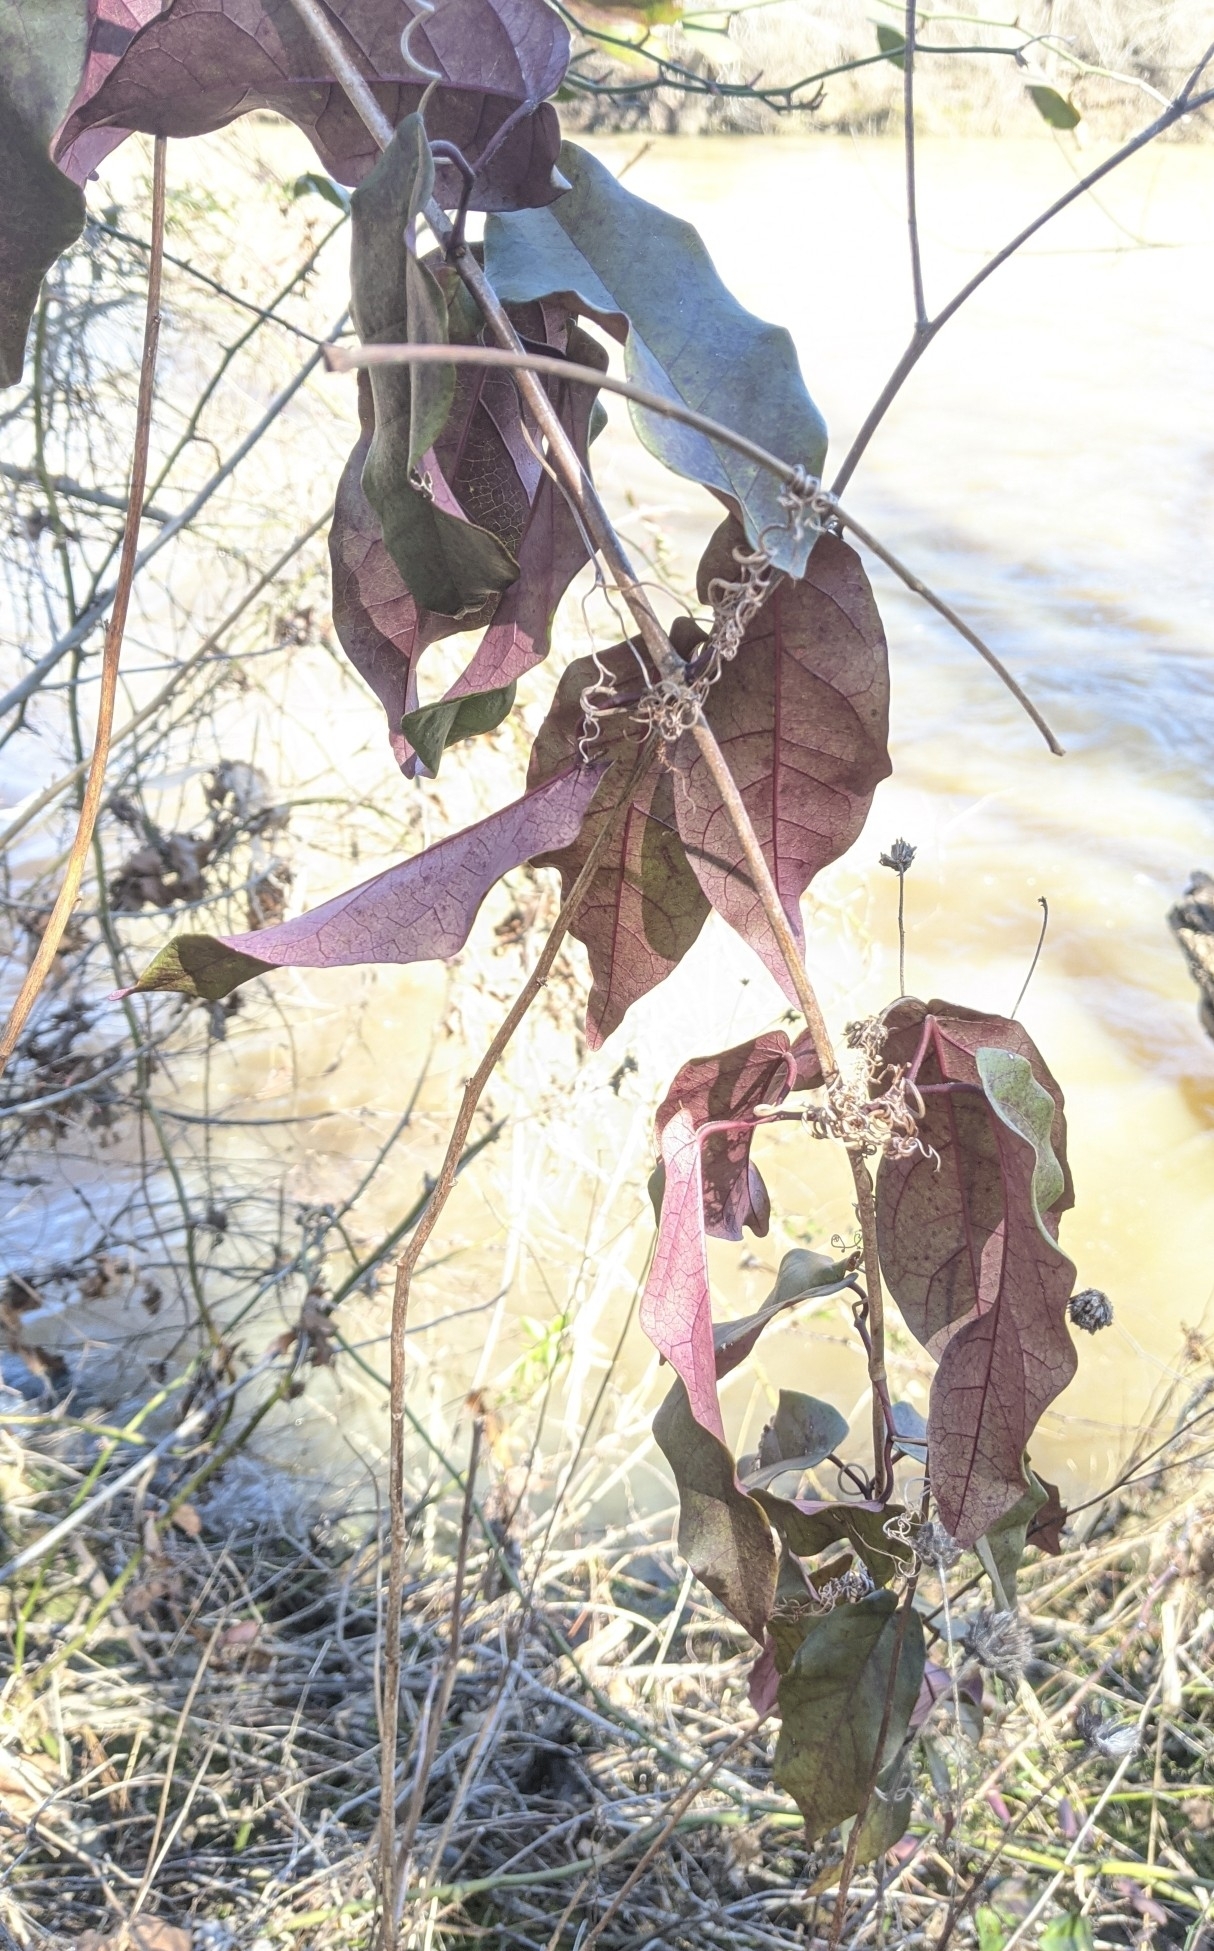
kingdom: Plantae
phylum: Tracheophyta
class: Magnoliopsida
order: Lamiales
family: Bignoniaceae
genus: Bignonia
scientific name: Bignonia capreolata
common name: Crossvine
